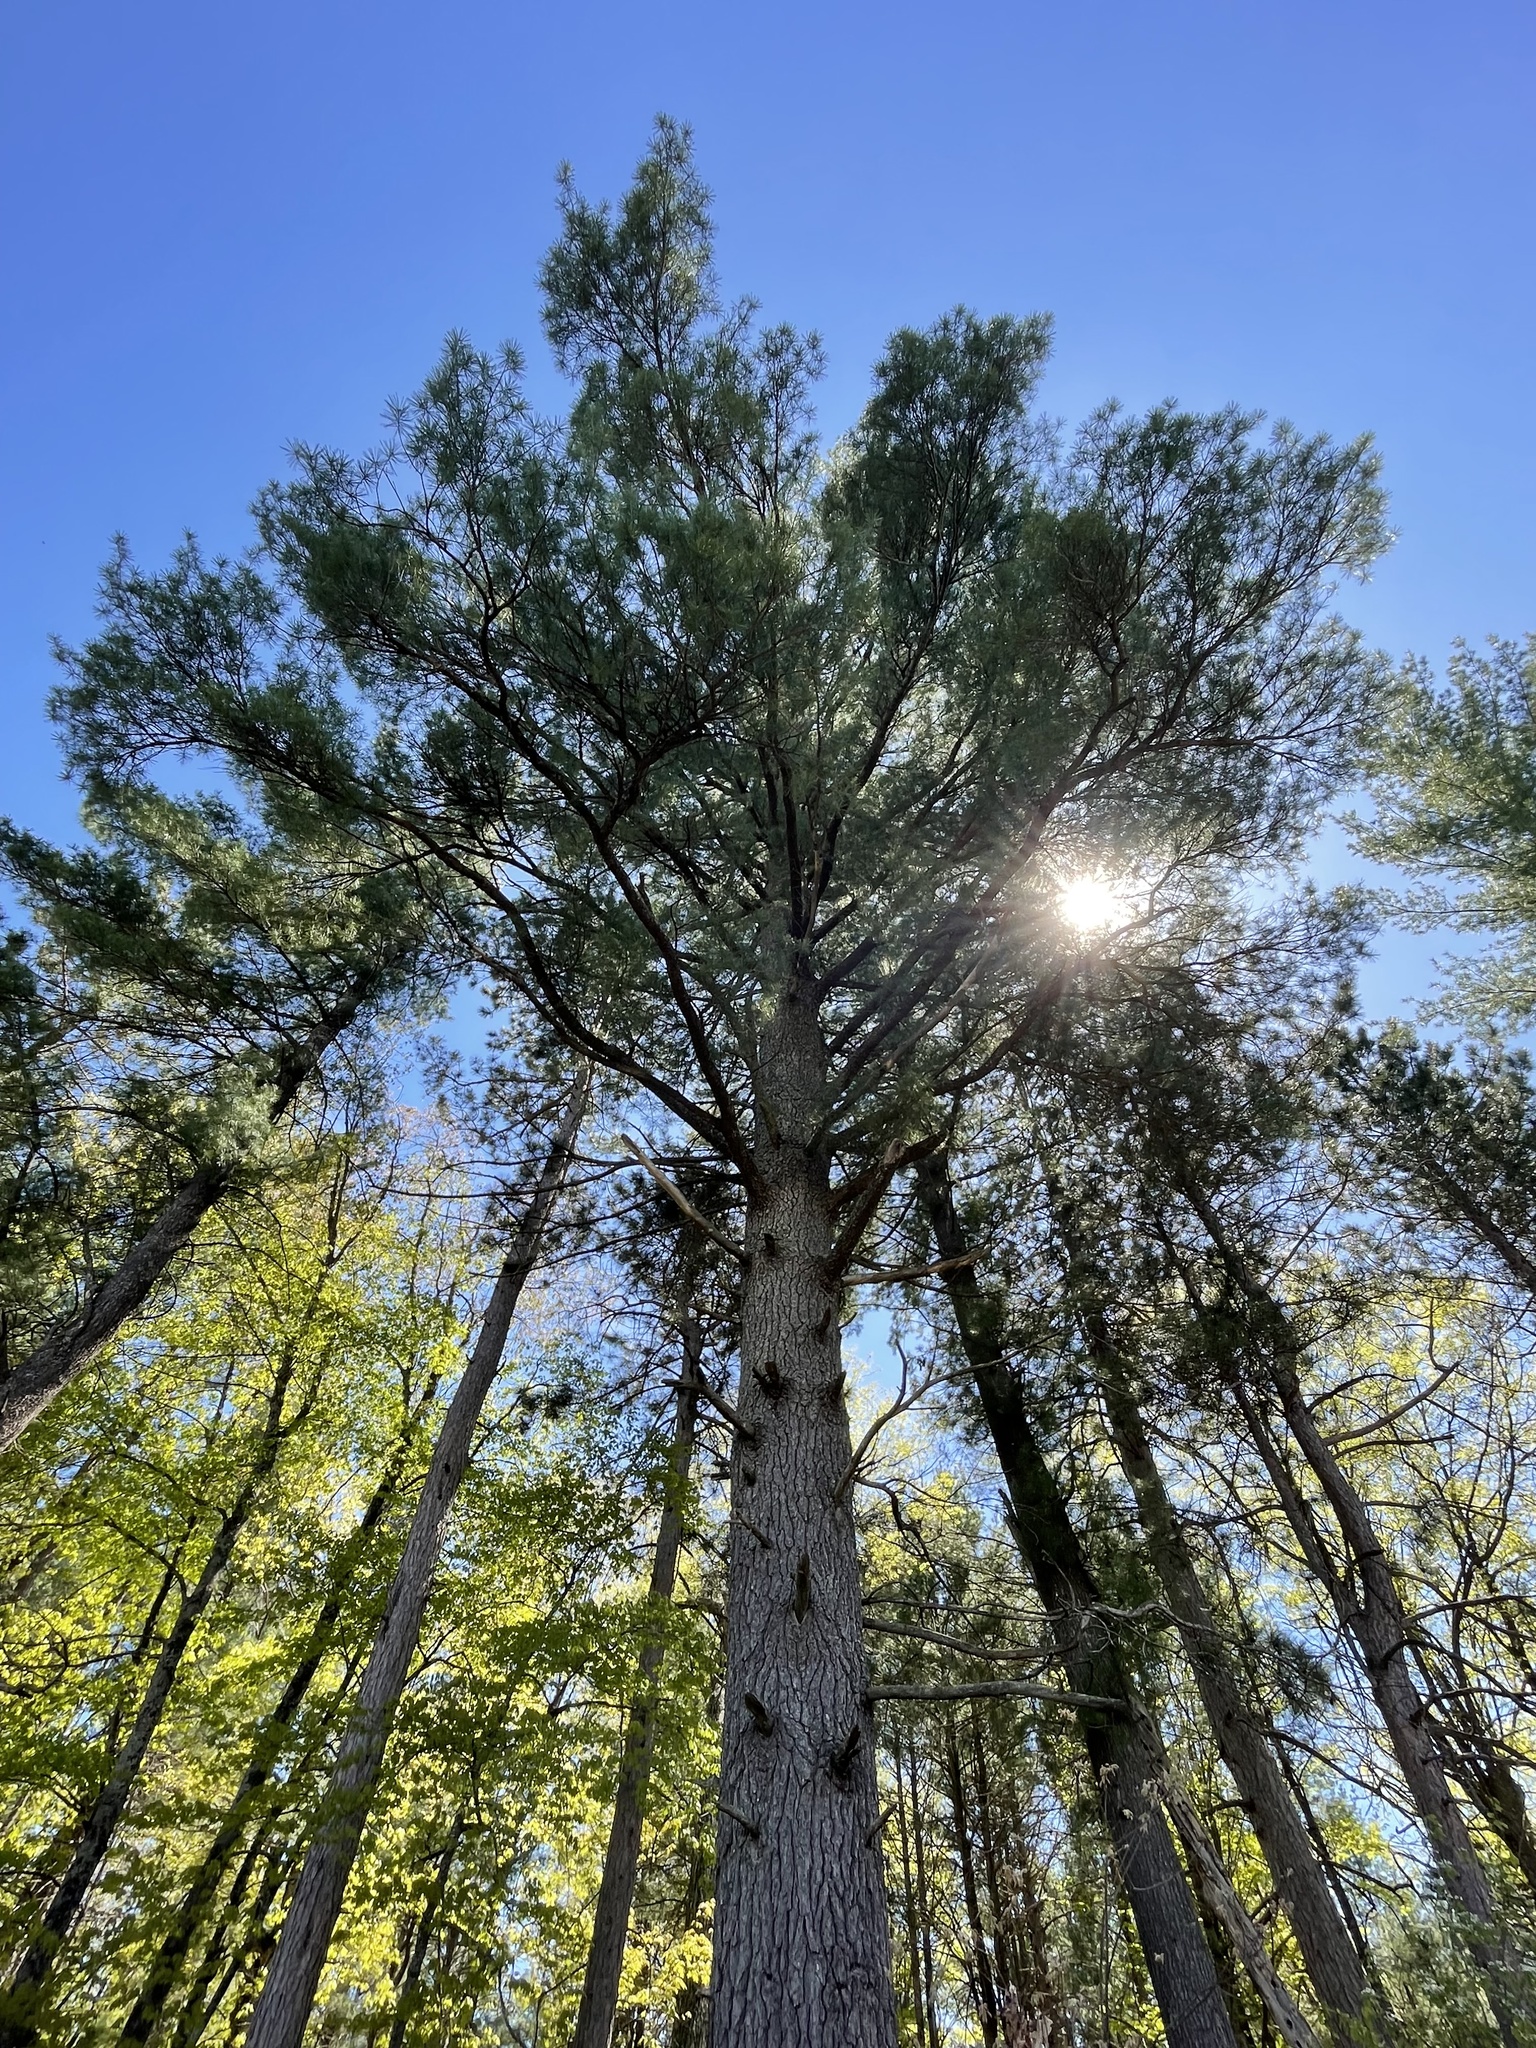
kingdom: Plantae
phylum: Tracheophyta
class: Pinopsida
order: Pinales
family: Pinaceae
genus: Pinus
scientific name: Pinus strobus
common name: Weymouth pine
